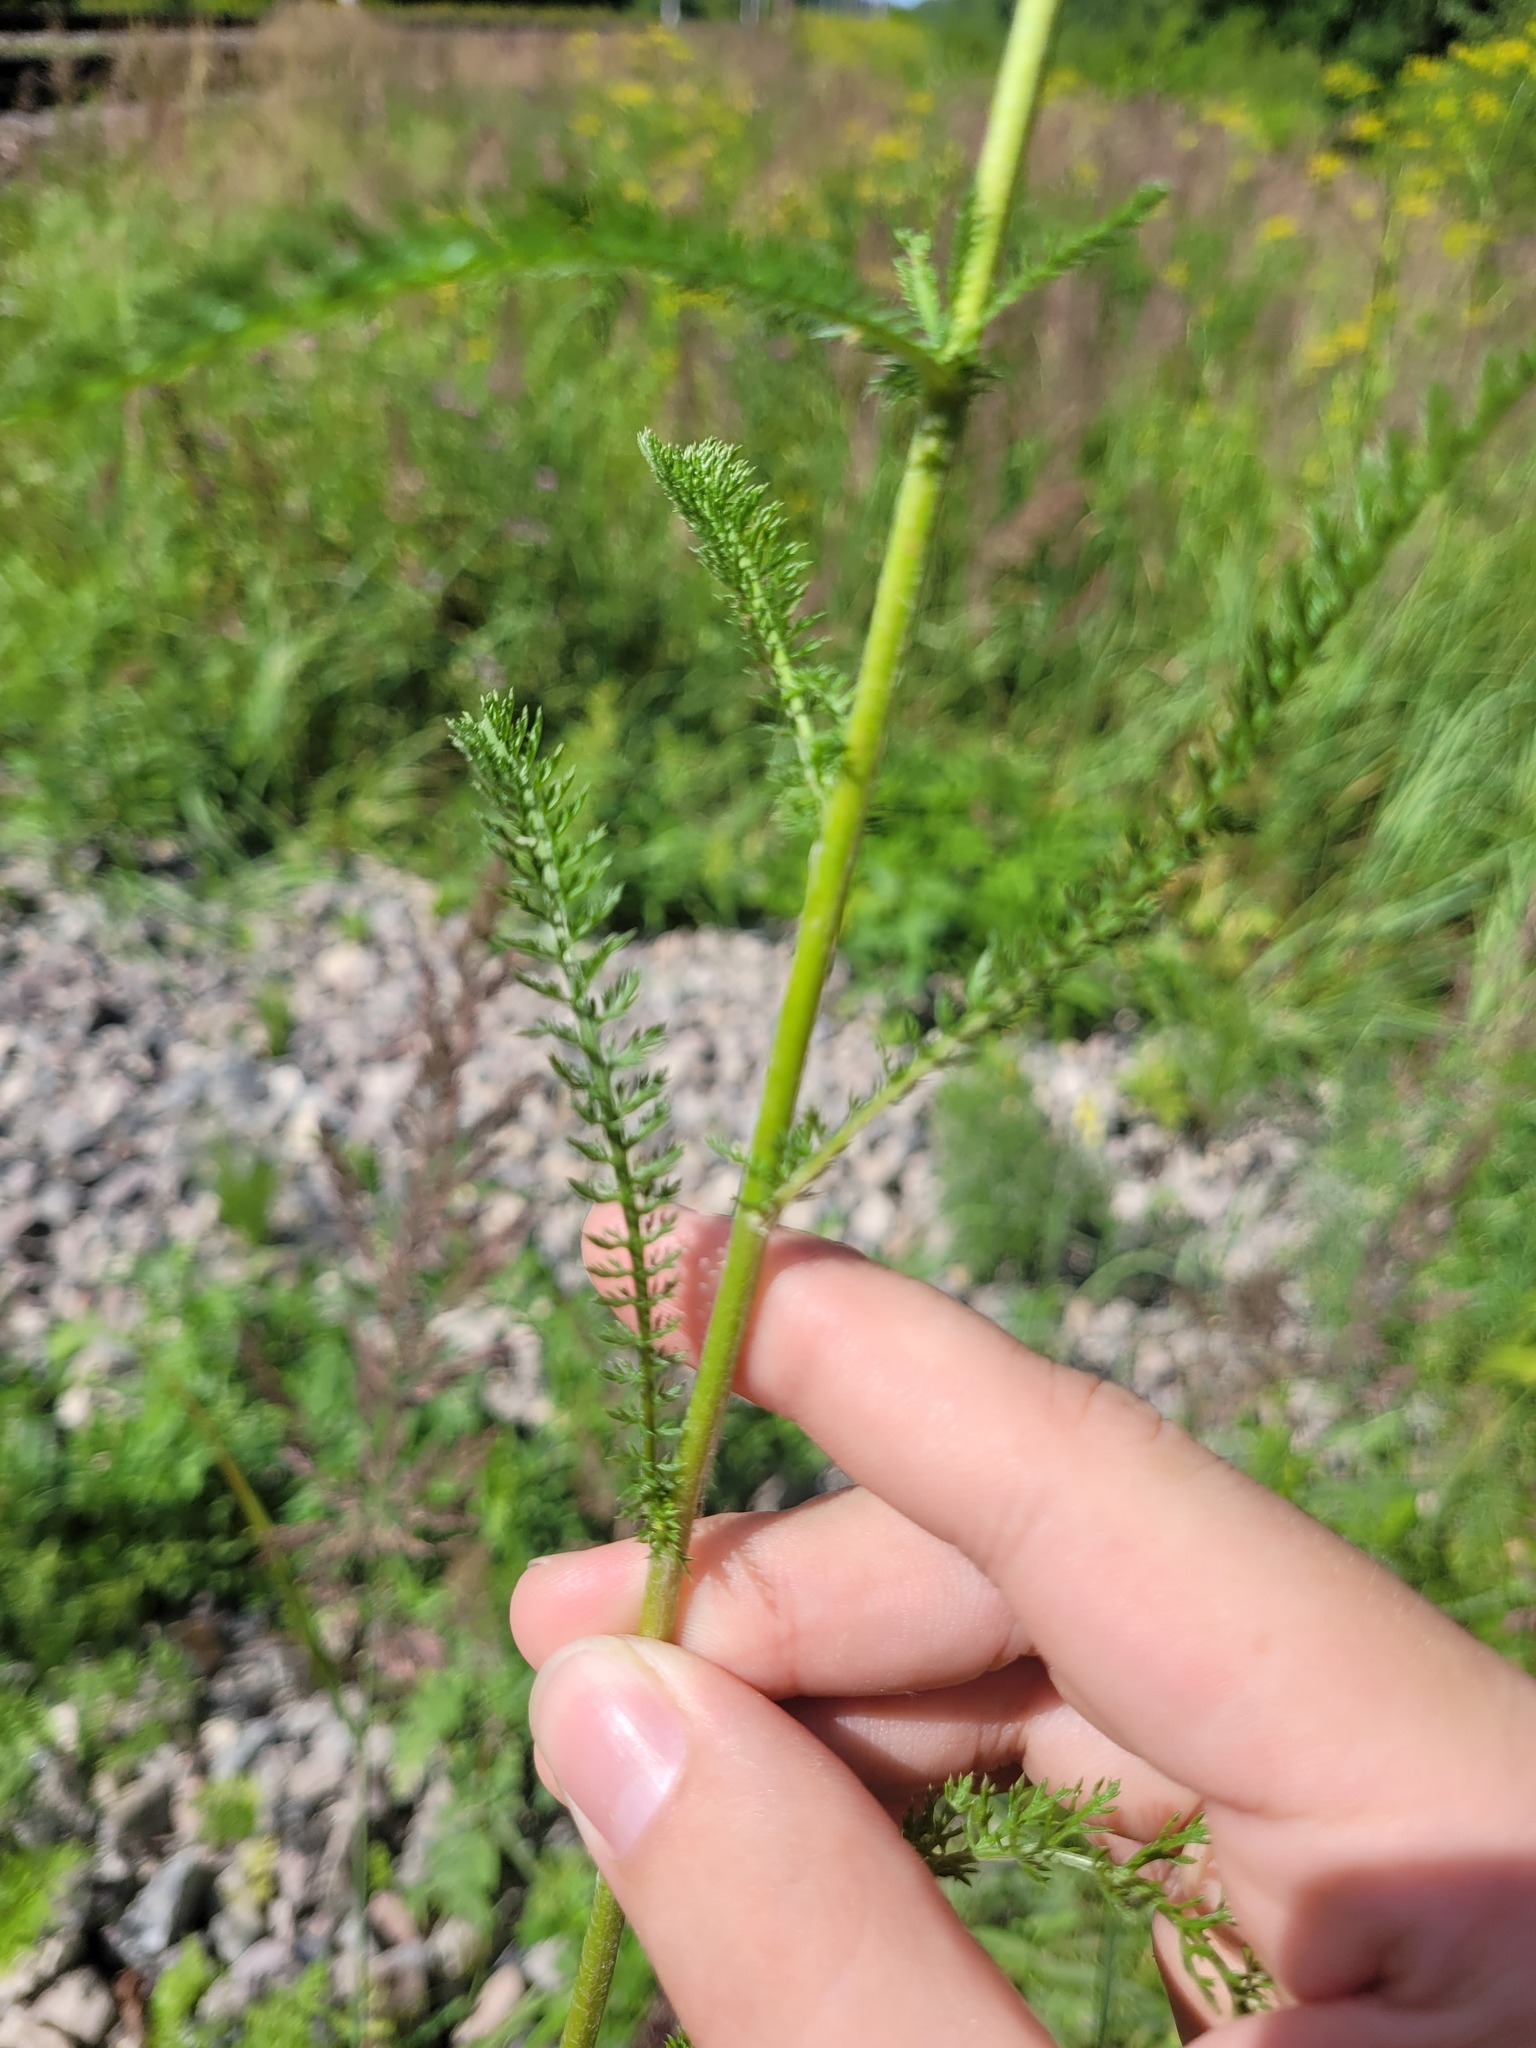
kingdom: Plantae
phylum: Tracheophyta
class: Magnoliopsida
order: Asterales
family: Asteraceae
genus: Achillea
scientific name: Achillea millefolium
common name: Yarrow
